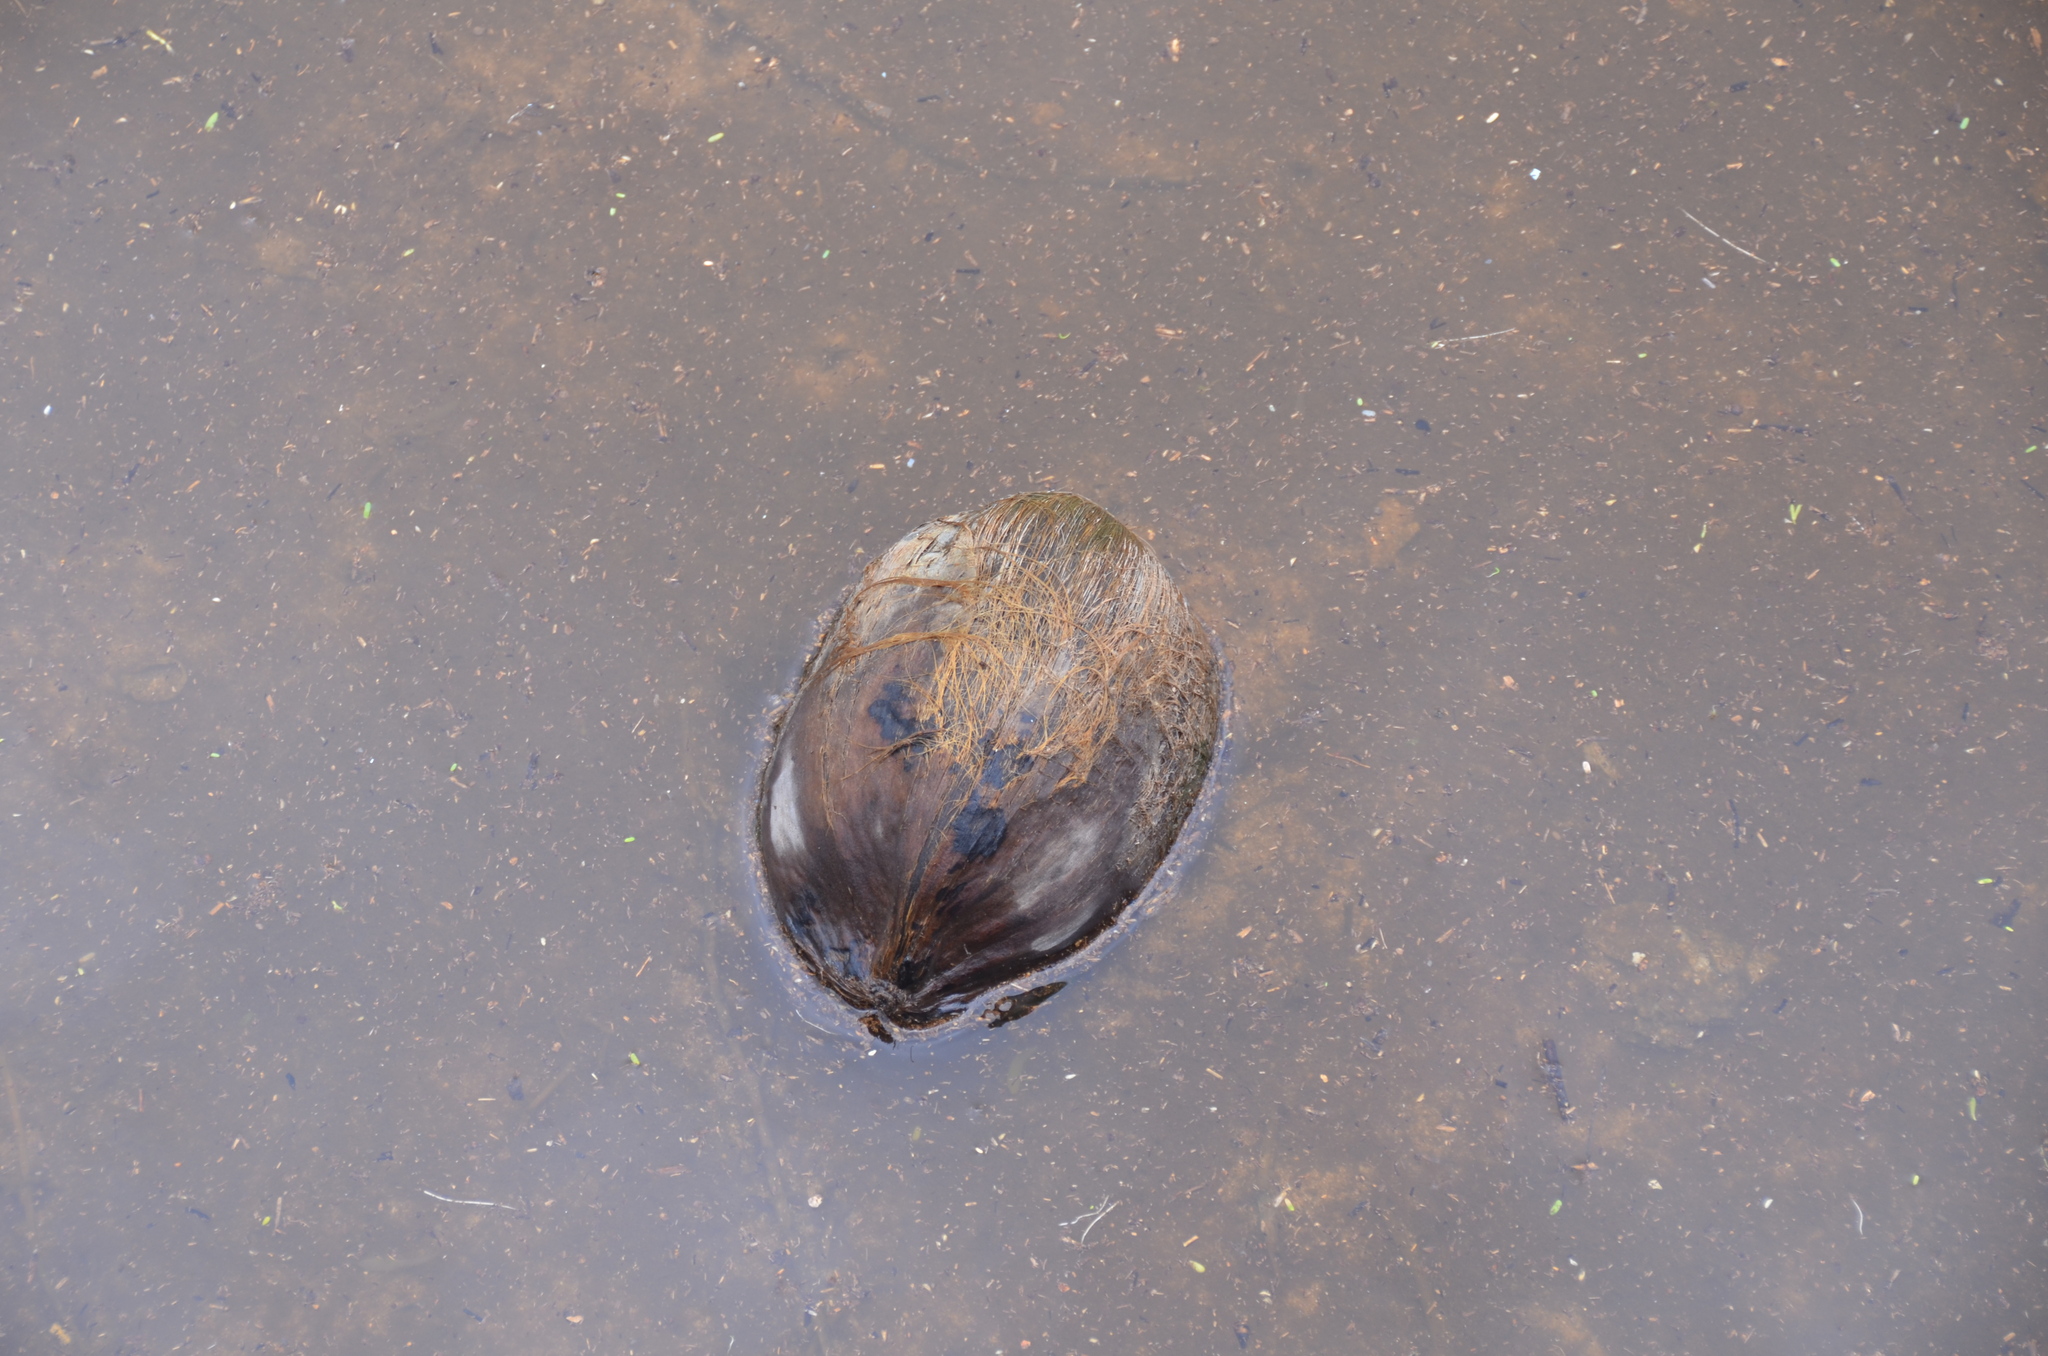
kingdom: Plantae
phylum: Tracheophyta
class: Liliopsida
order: Arecales
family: Arecaceae
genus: Cocos
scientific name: Cocos nucifera
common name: Coconut palm
